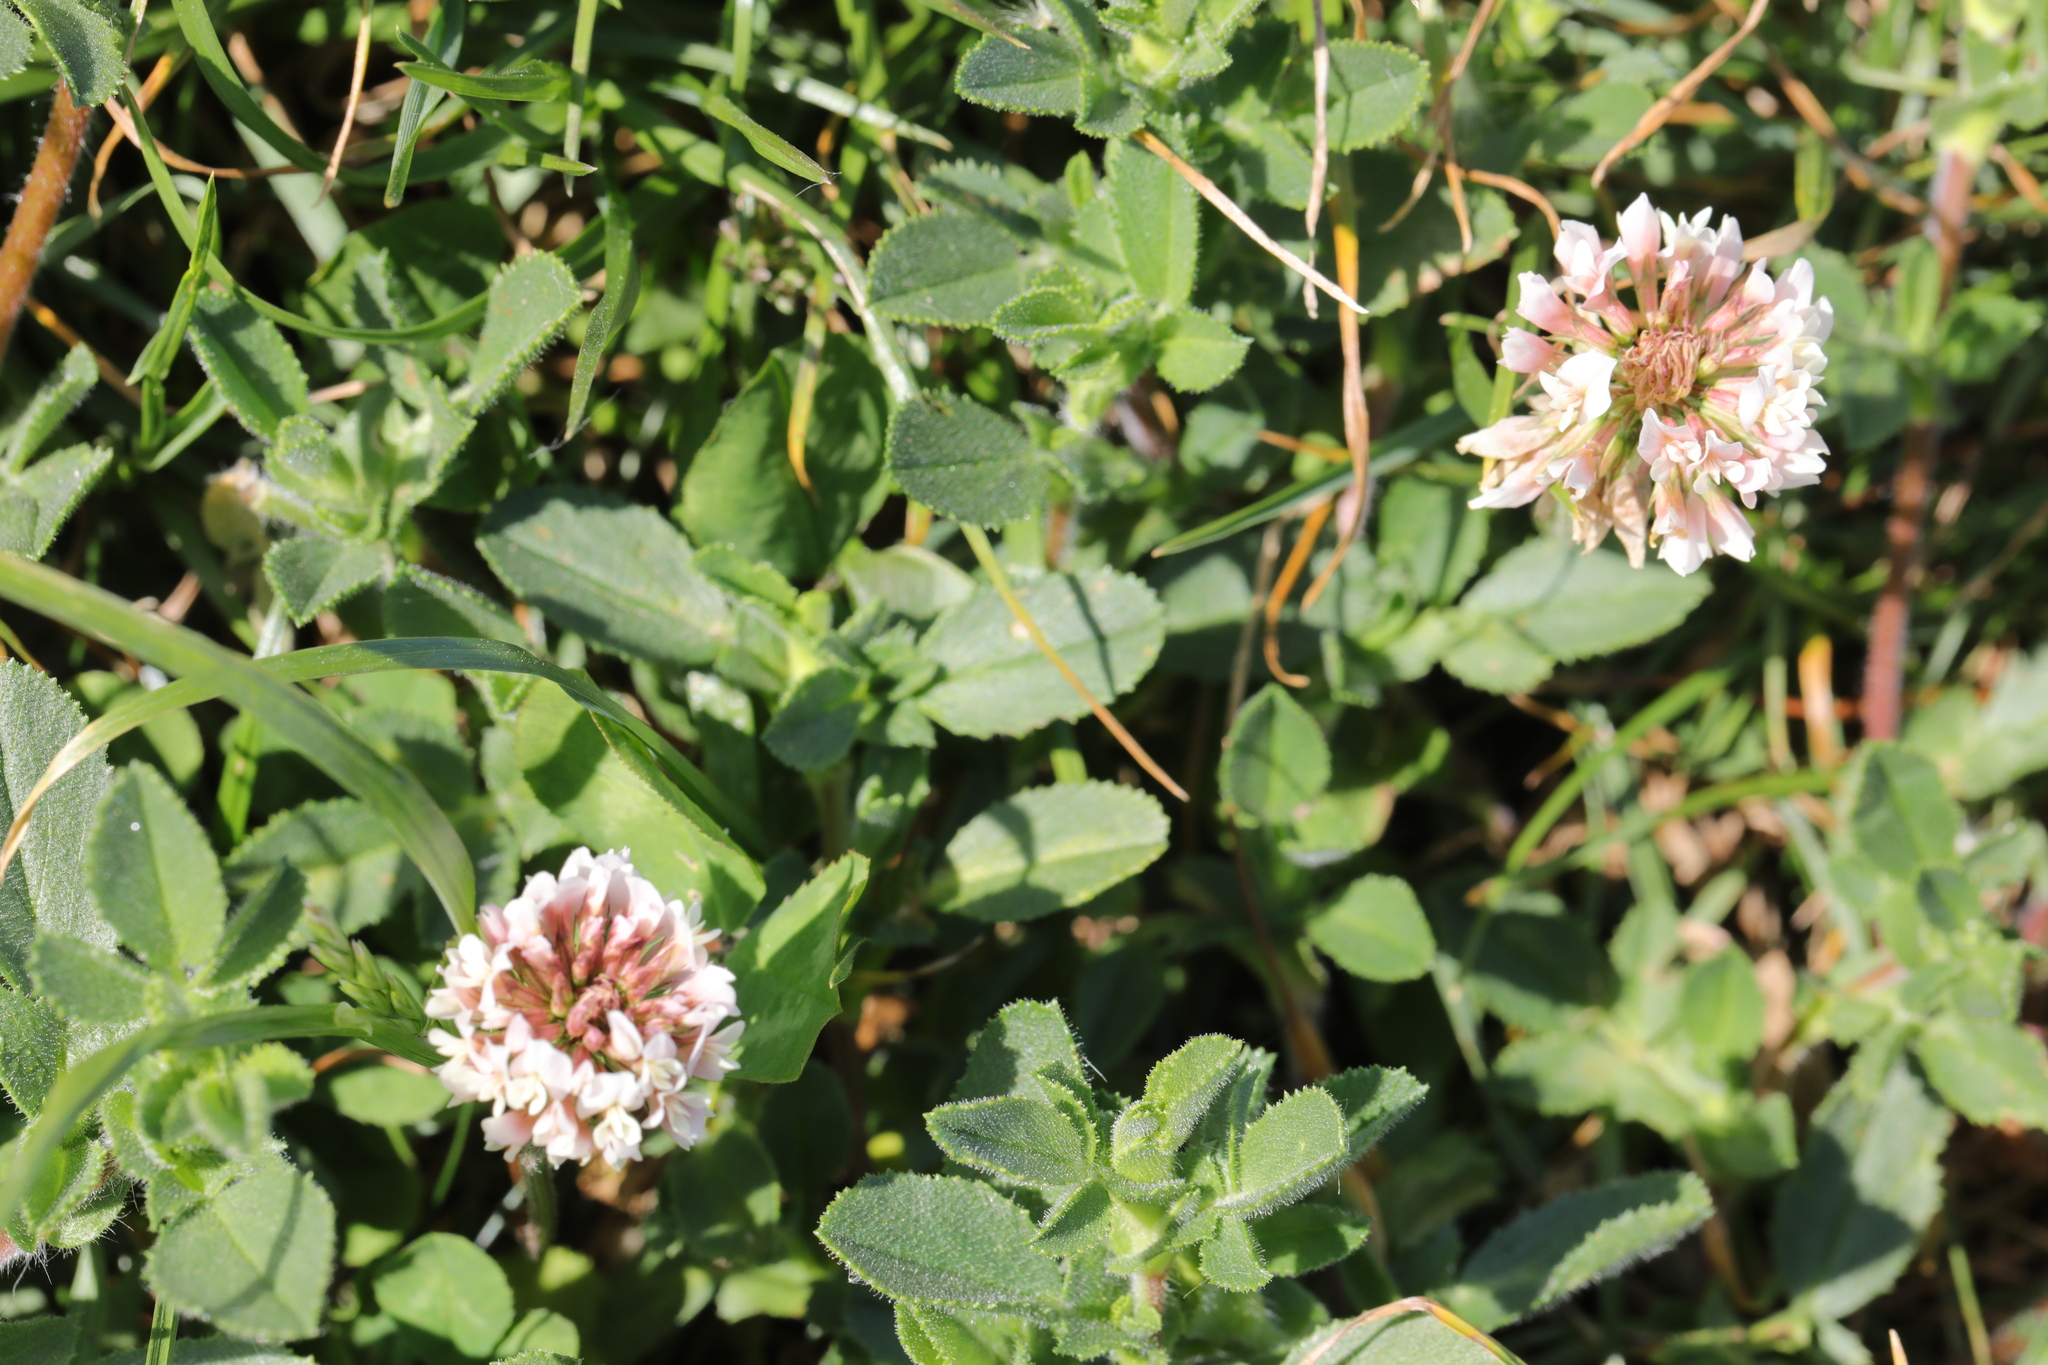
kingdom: Plantae
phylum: Tracheophyta
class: Magnoliopsida
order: Fabales
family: Fabaceae
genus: Trifolium
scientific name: Trifolium repens
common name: White clover
